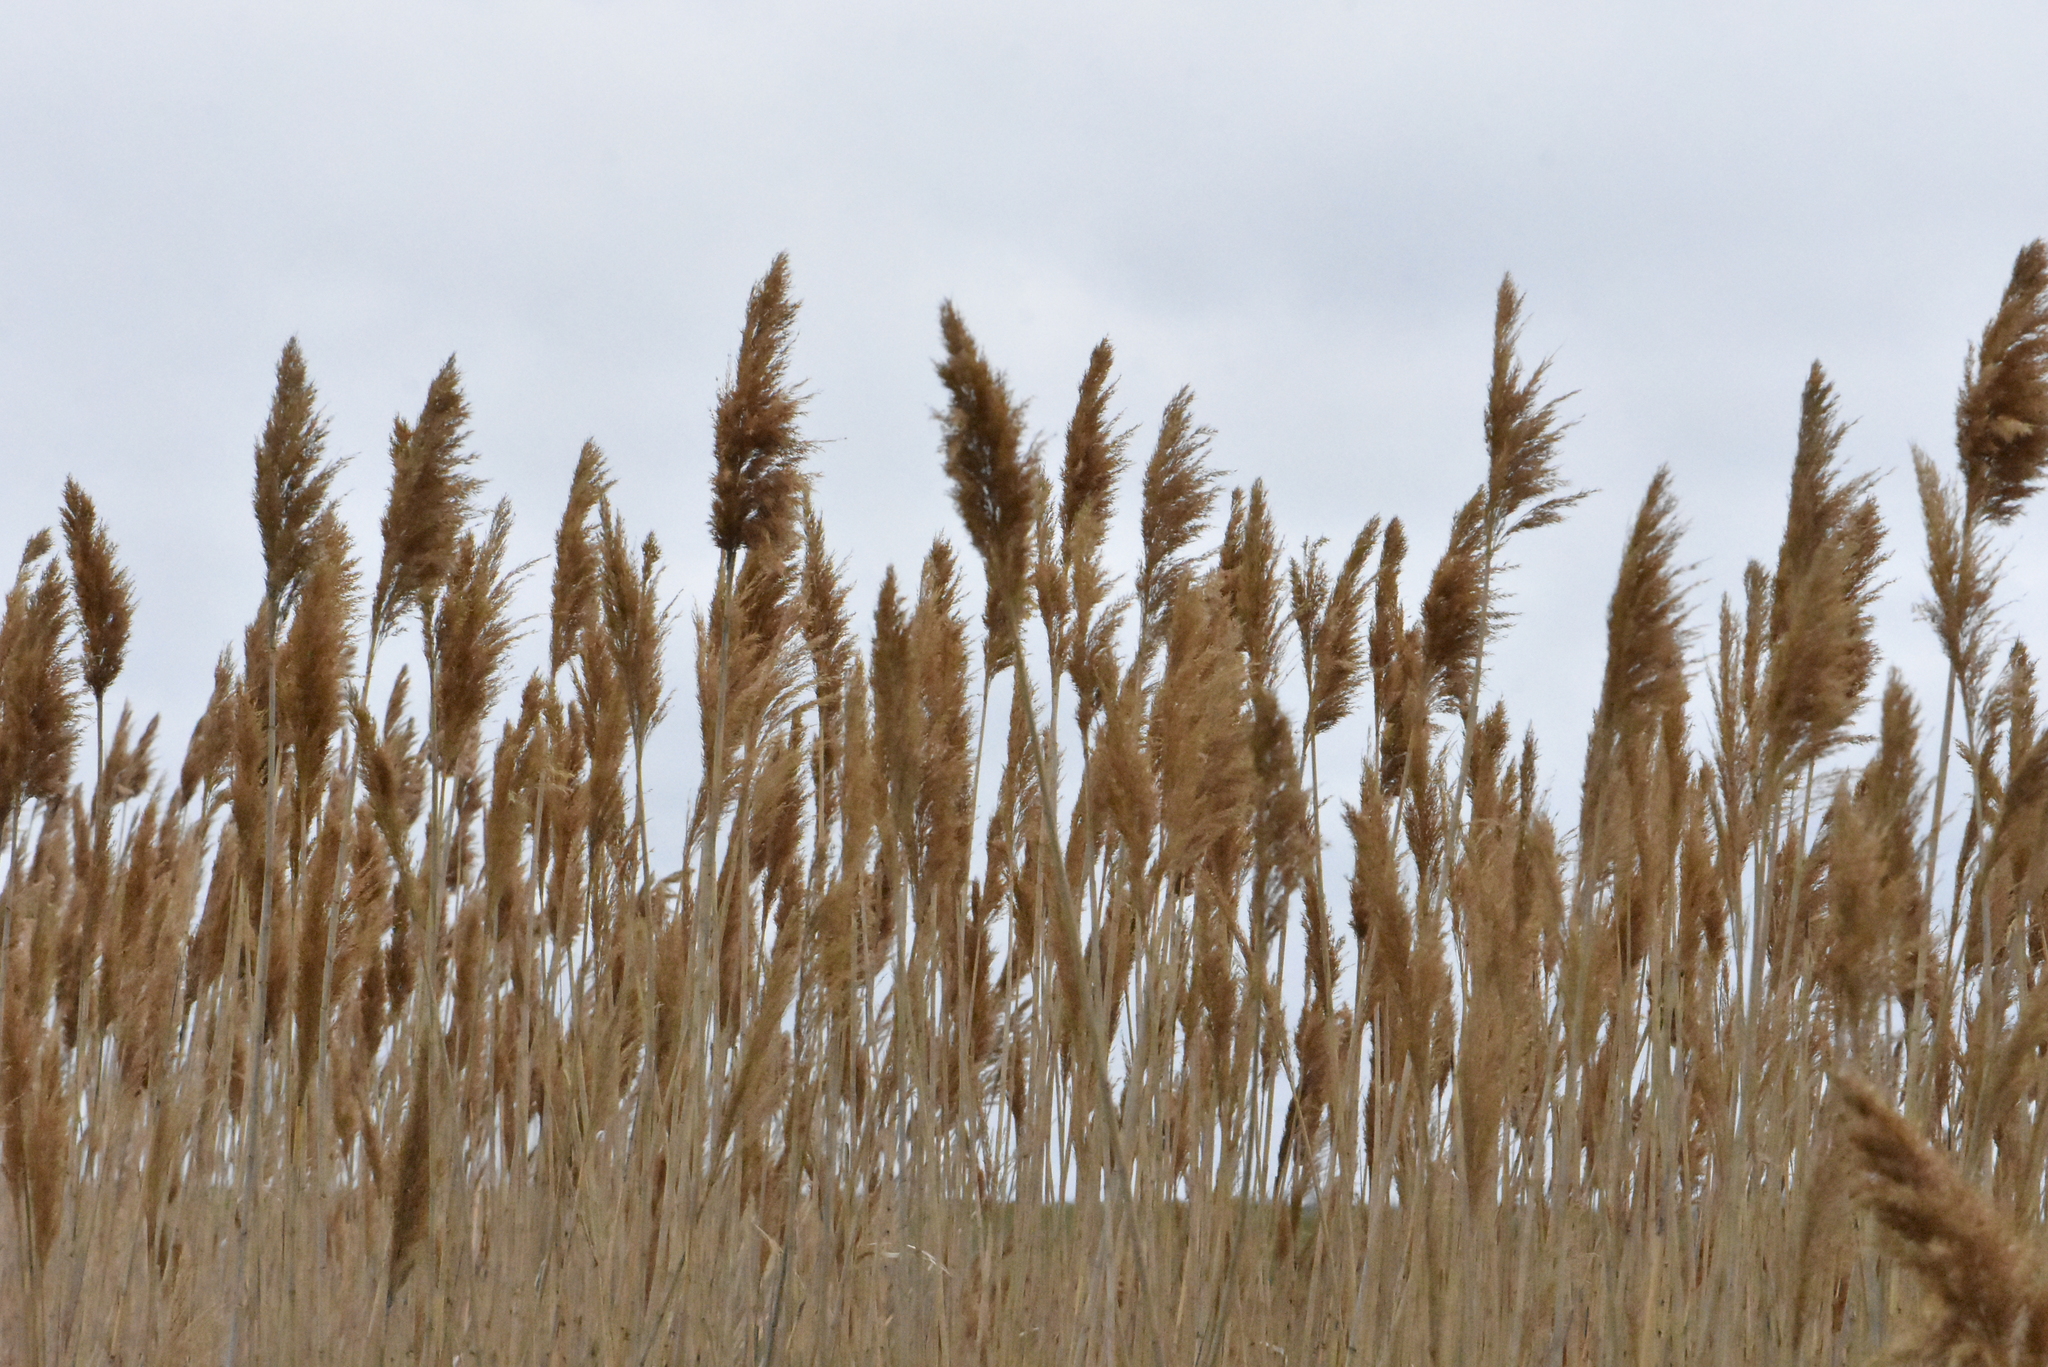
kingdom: Plantae
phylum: Tracheophyta
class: Liliopsida
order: Poales
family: Poaceae
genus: Phragmites
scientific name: Phragmites australis
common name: Common reed
